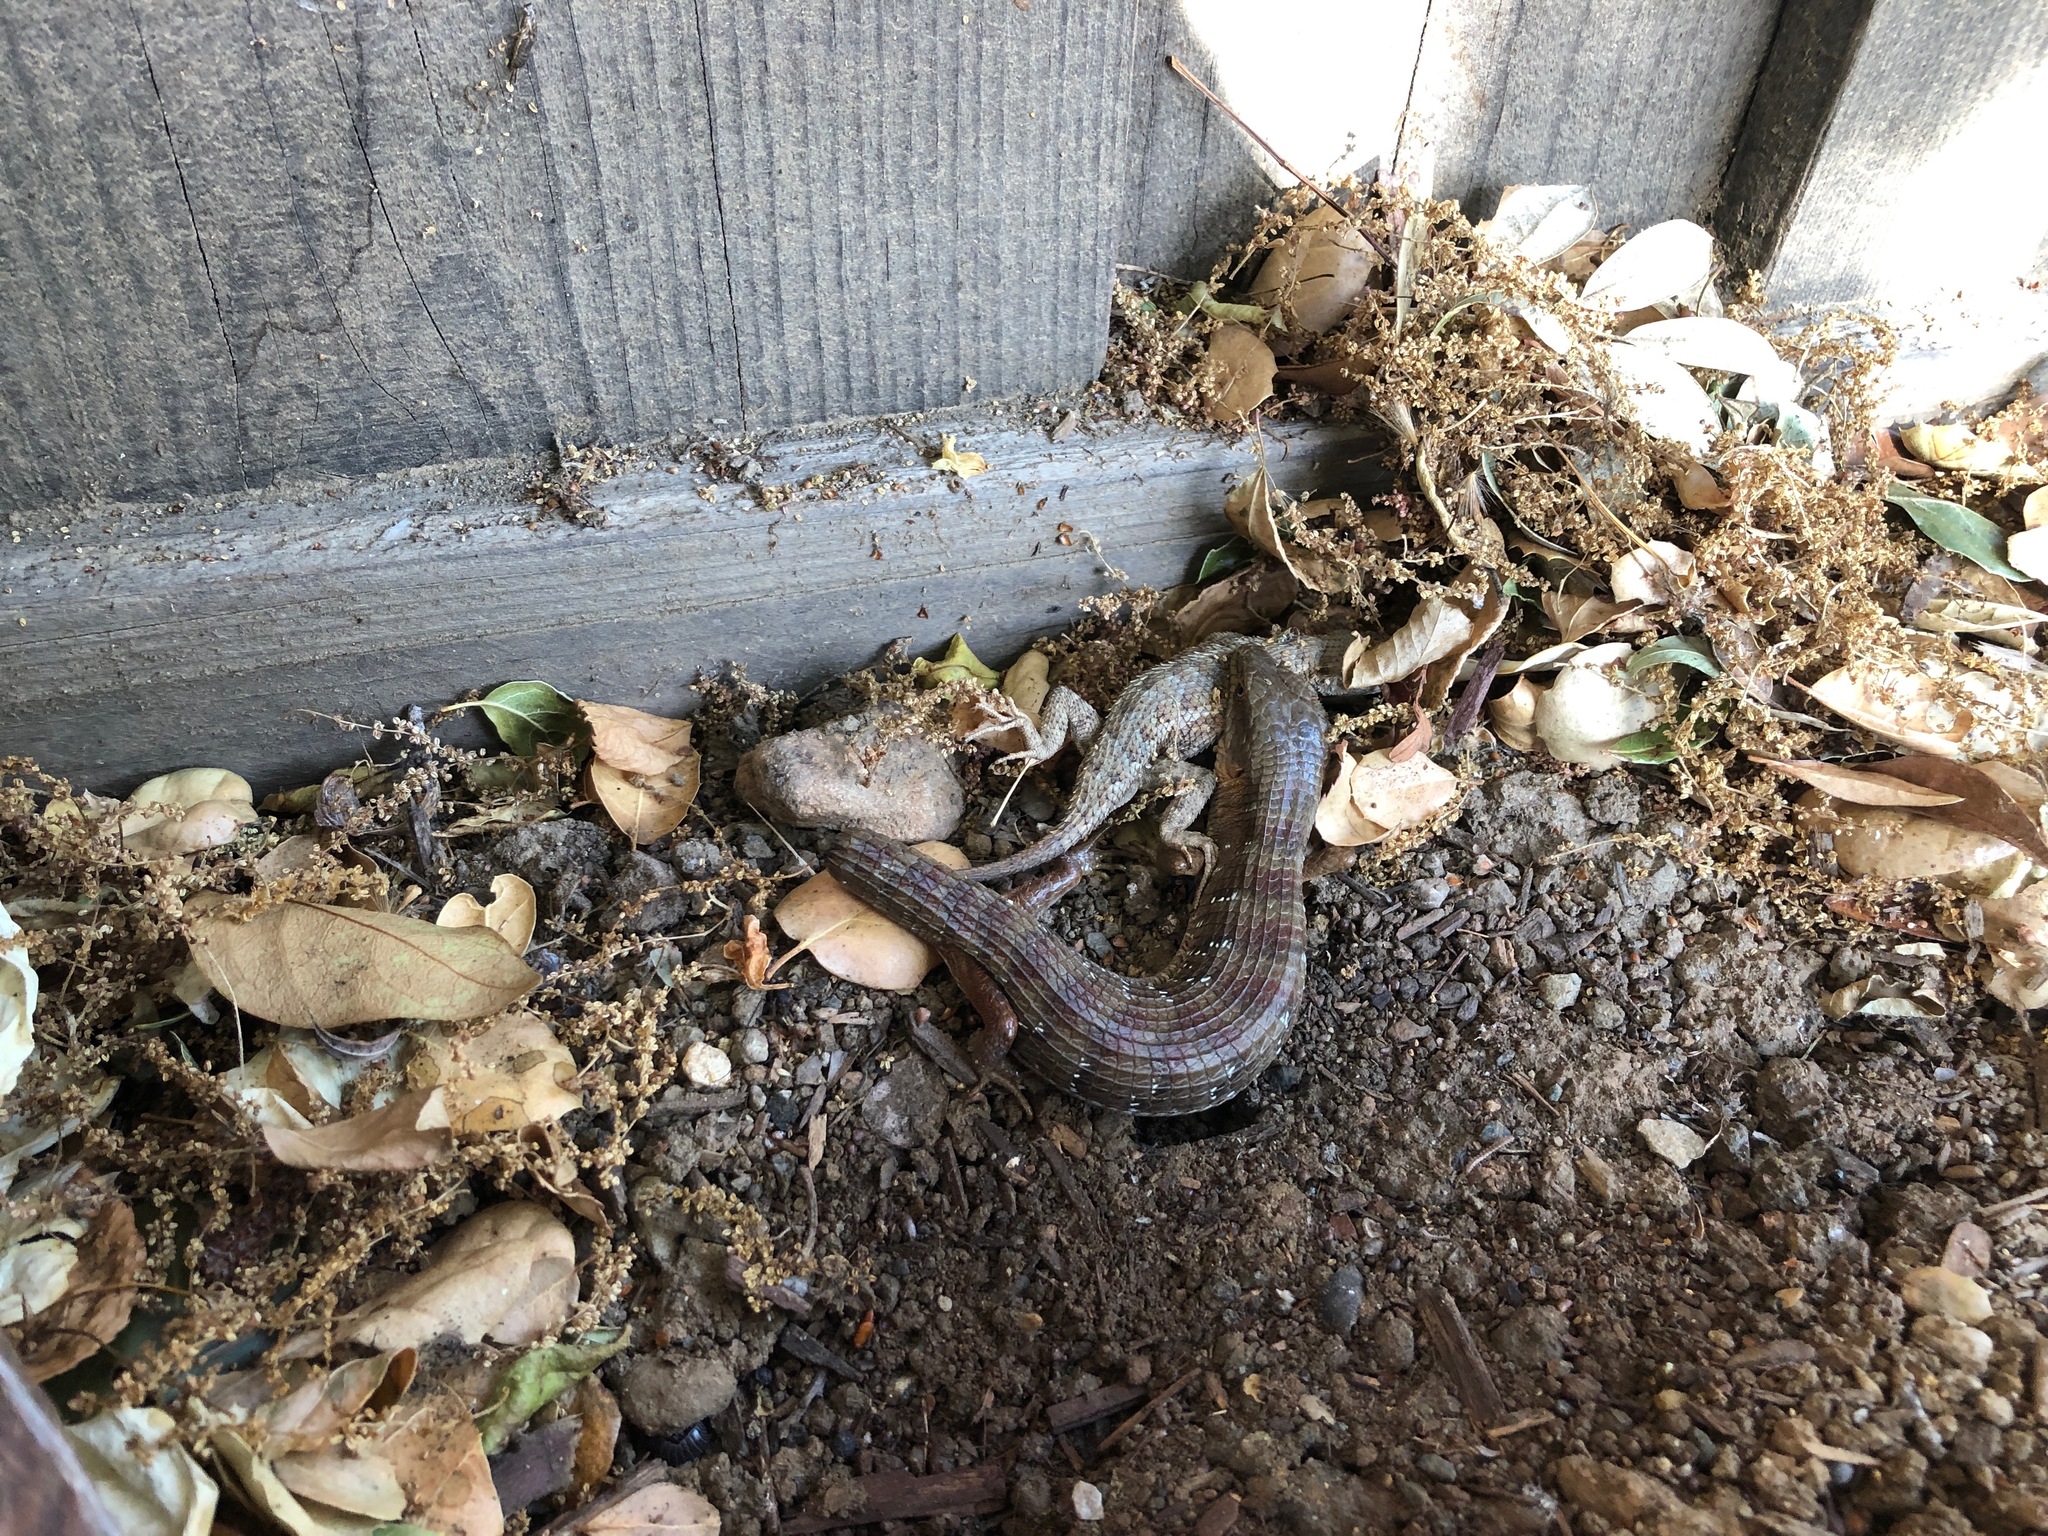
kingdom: Animalia
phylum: Chordata
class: Squamata
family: Anguidae
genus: Elgaria
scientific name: Elgaria multicarinata
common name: Southern alligator lizard
